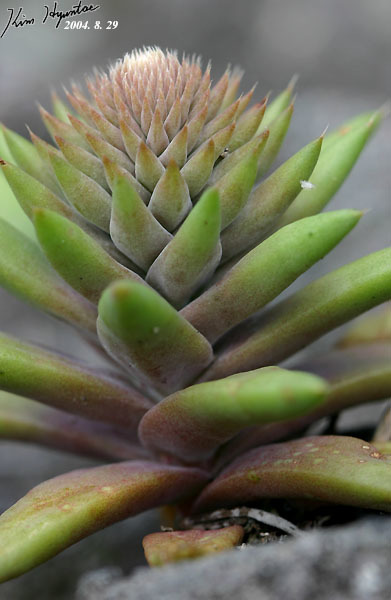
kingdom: Plantae
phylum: Tracheophyta
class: Magnoliopsida
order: Saxifragales
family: Crassulaceae
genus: Orostachys
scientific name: Orostachys japonica
